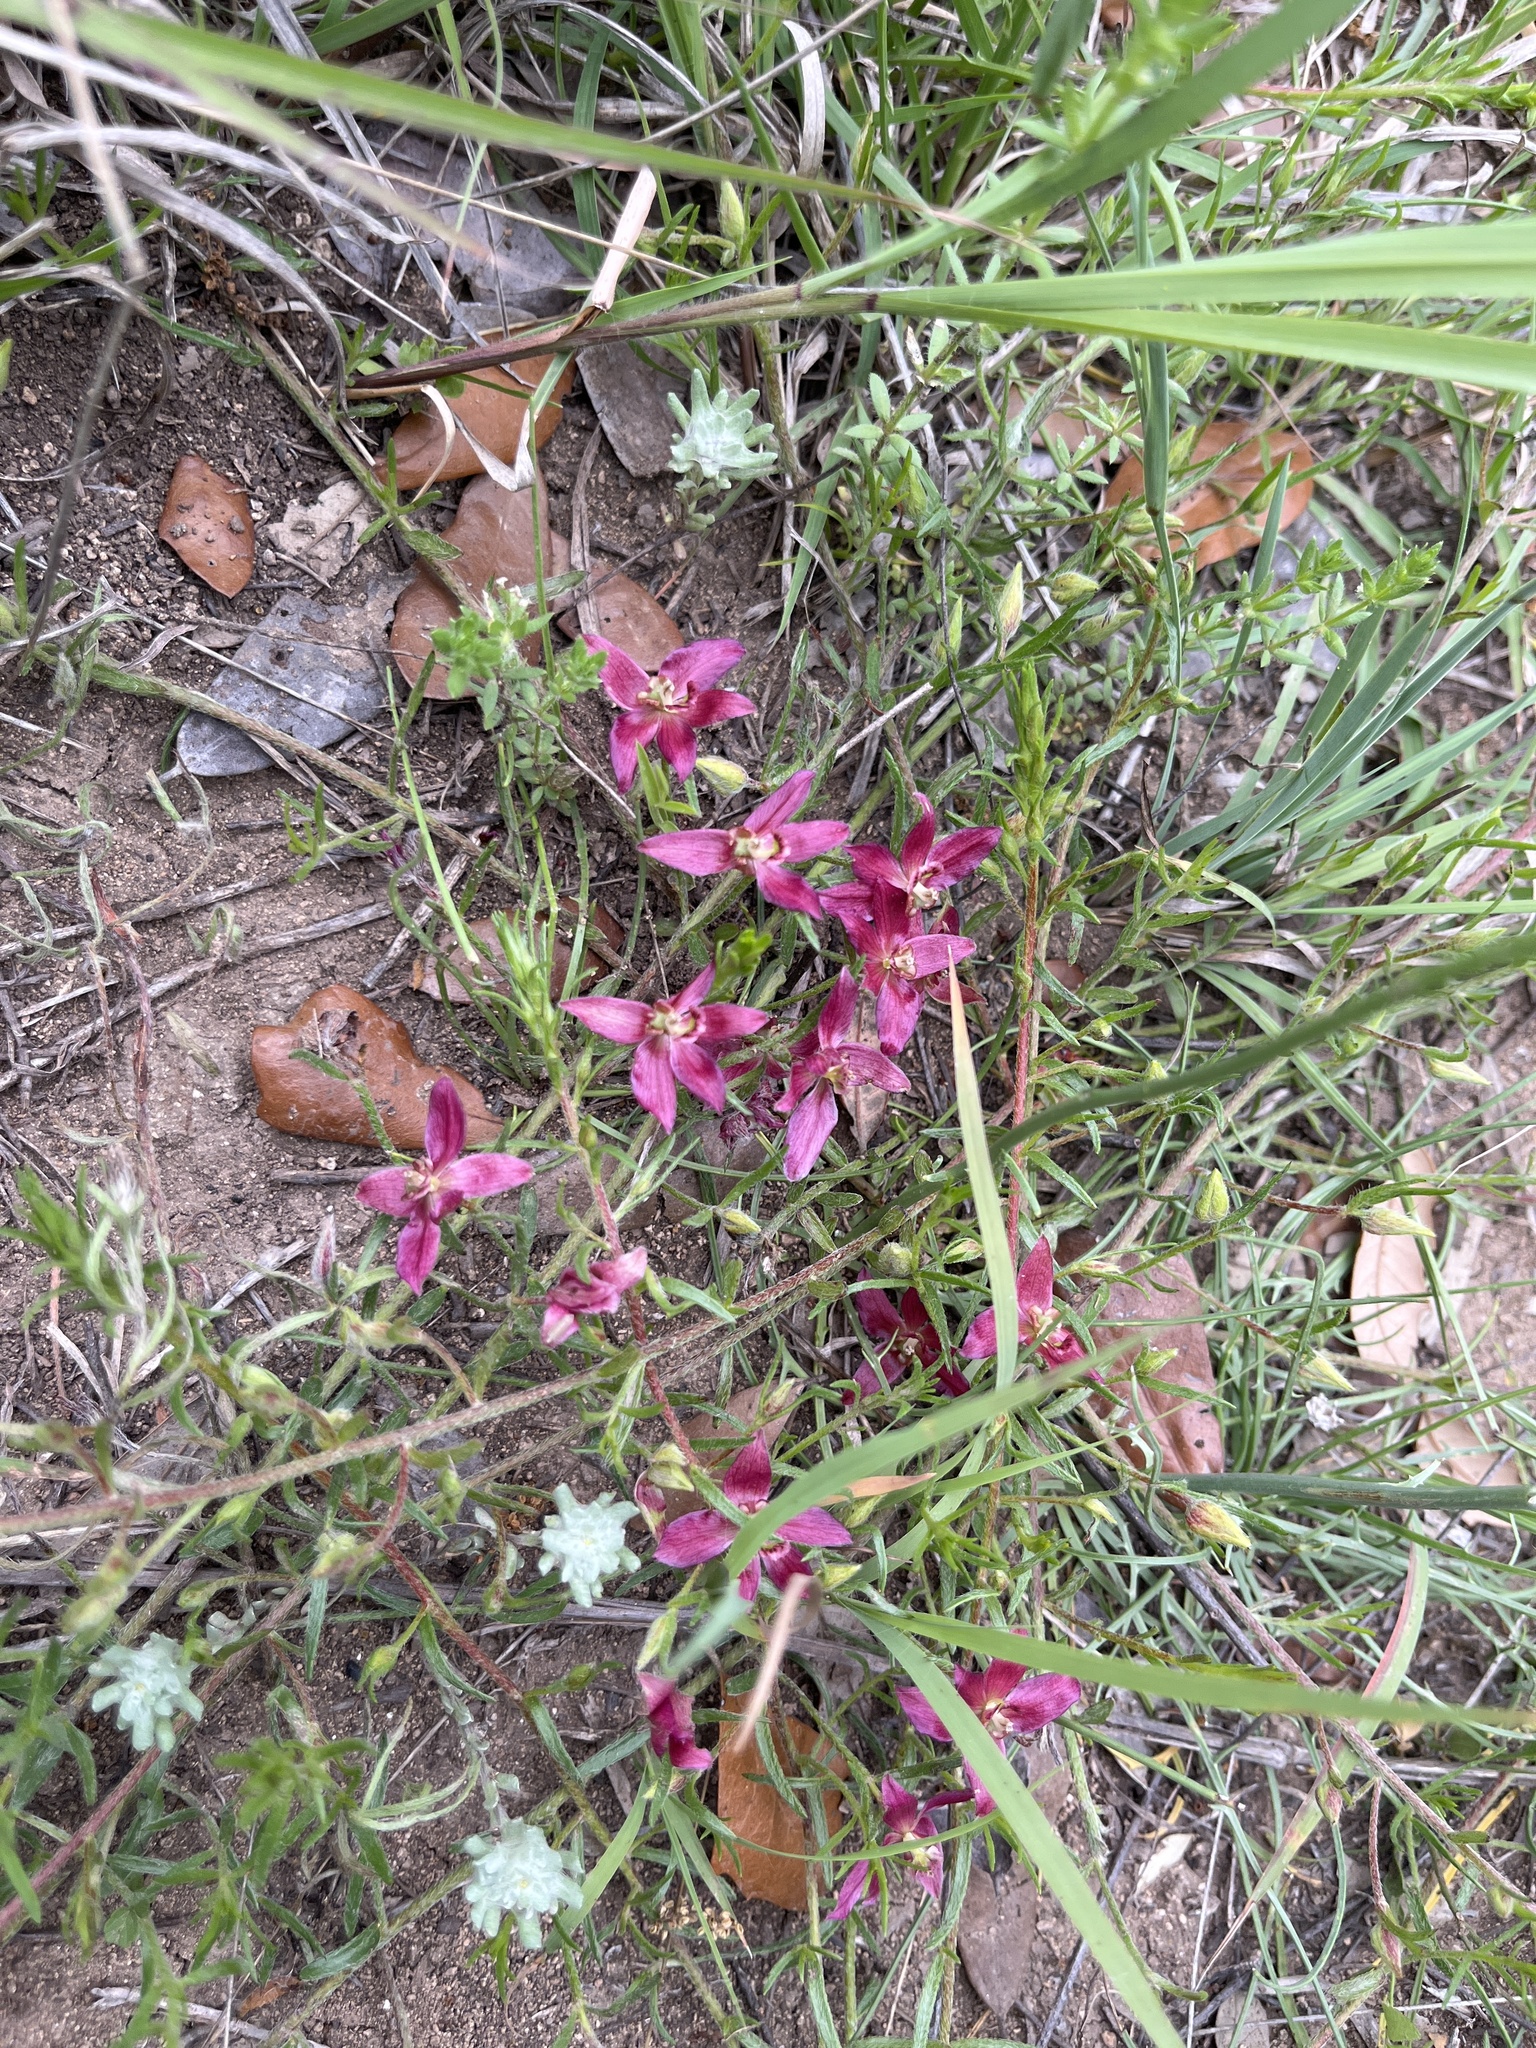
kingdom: Plantae
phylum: Tracheophyta
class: Magnoliopsida
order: Zygophyllales
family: Krameriaceae
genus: Krameria
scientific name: Krameria lanceolata
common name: Ratany
